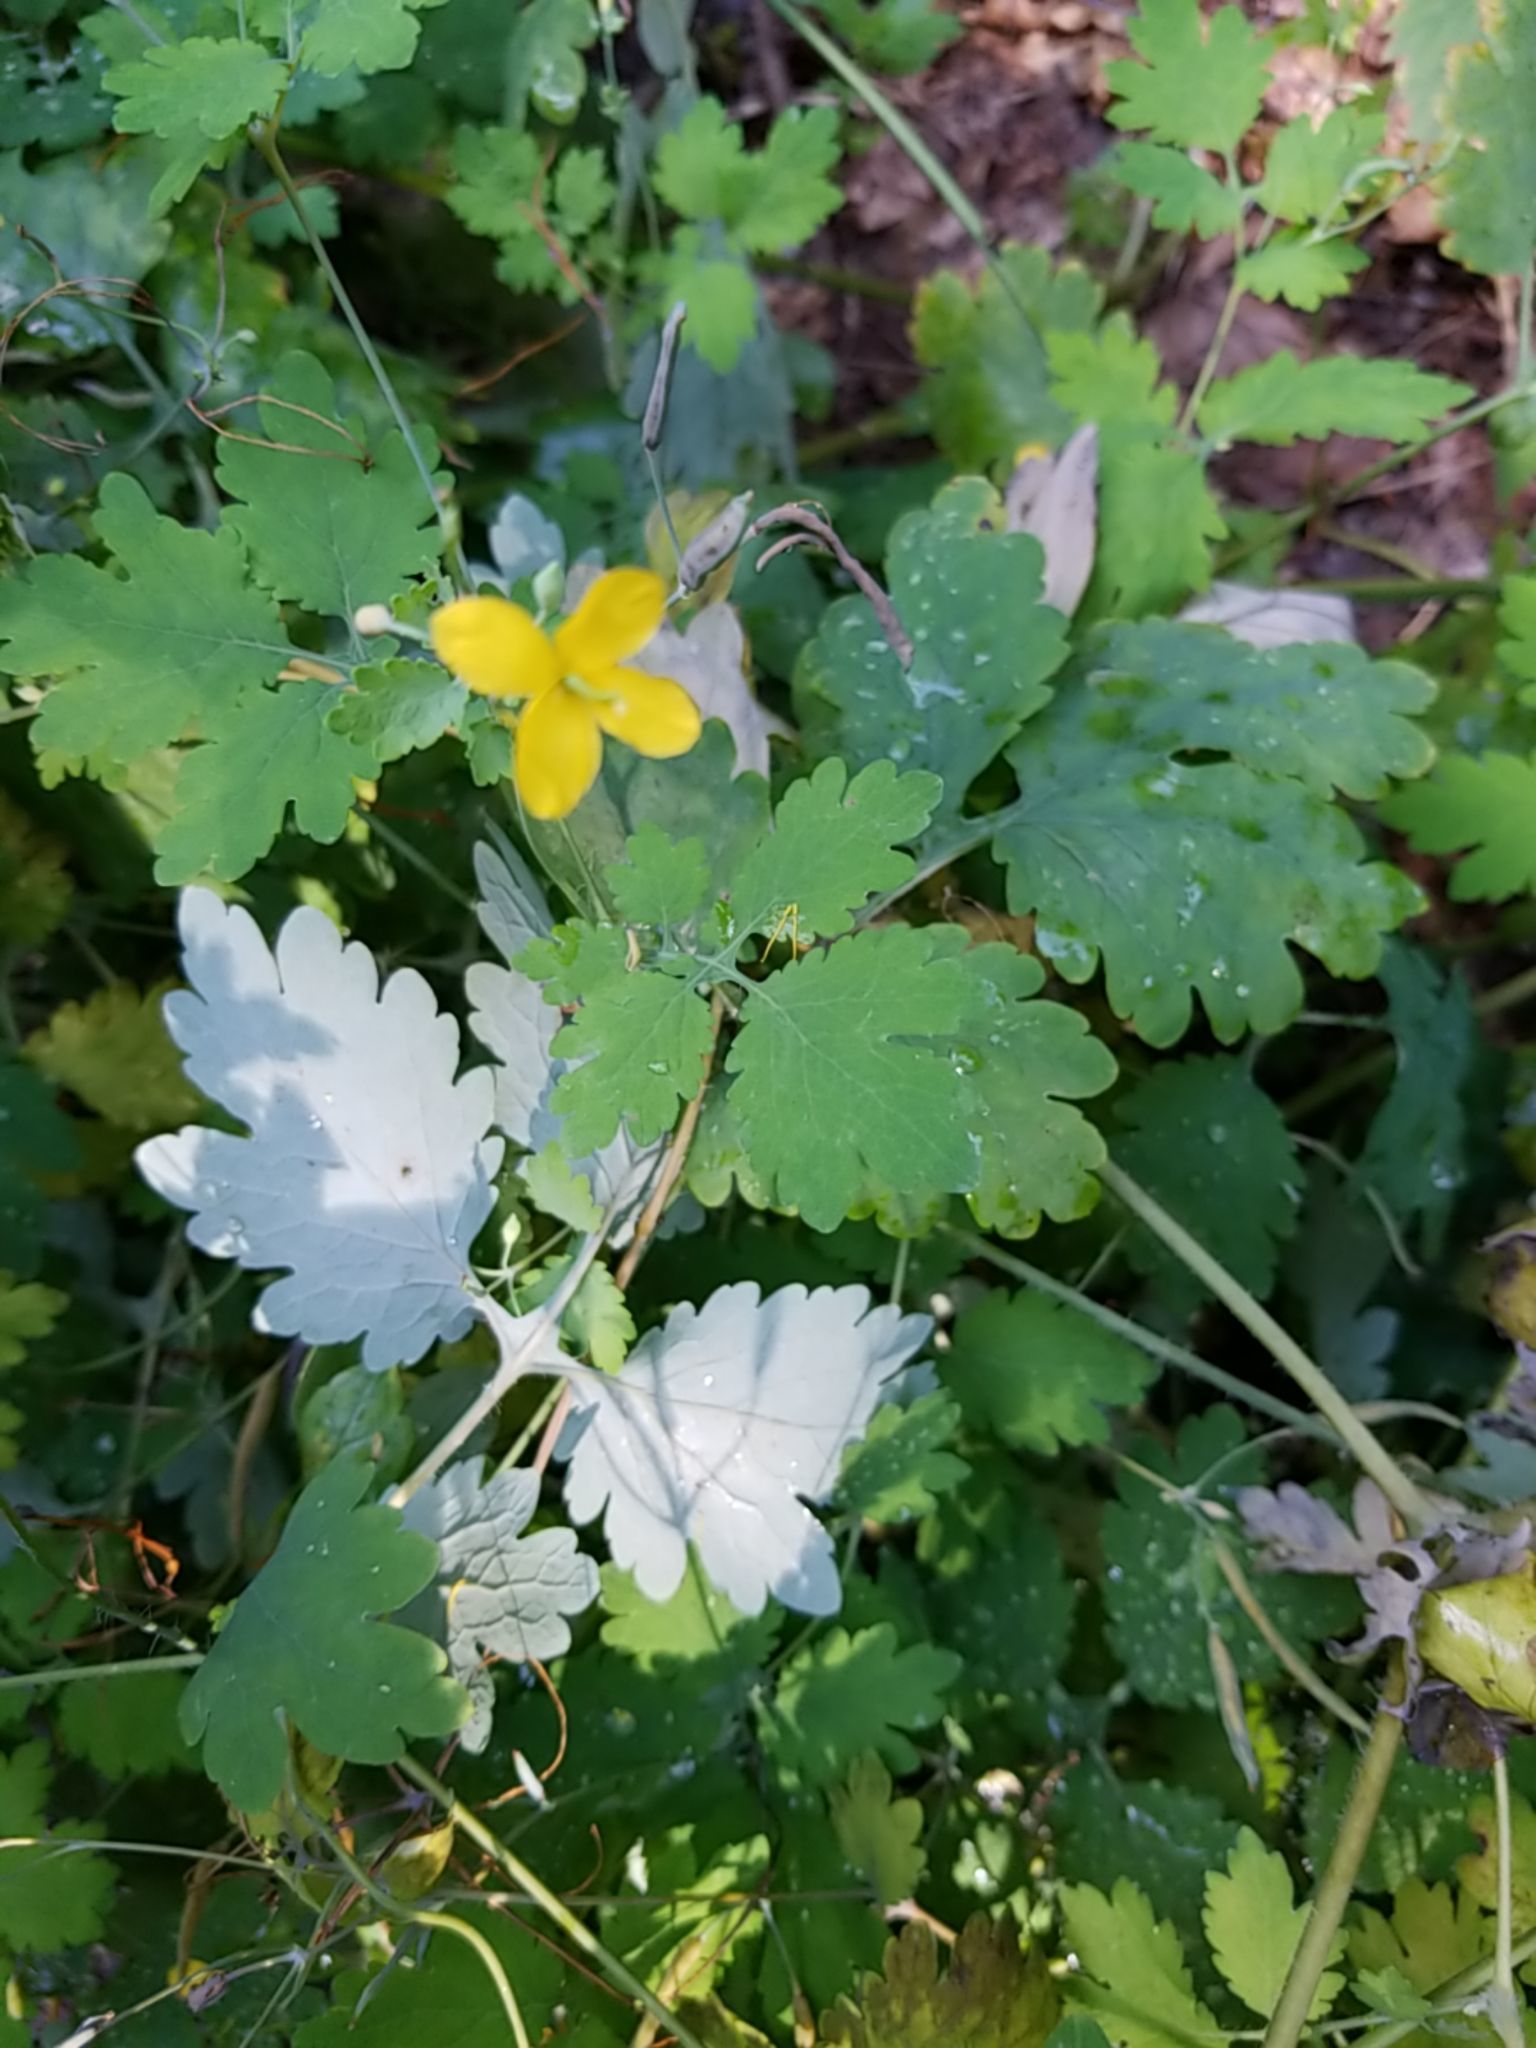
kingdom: Plantae
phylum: Tracheophyta
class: Magnoliopsida
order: Ranunculales
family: Papaveraceae
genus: Chelidonium
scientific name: Chelidonium majus
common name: Greater celandine
